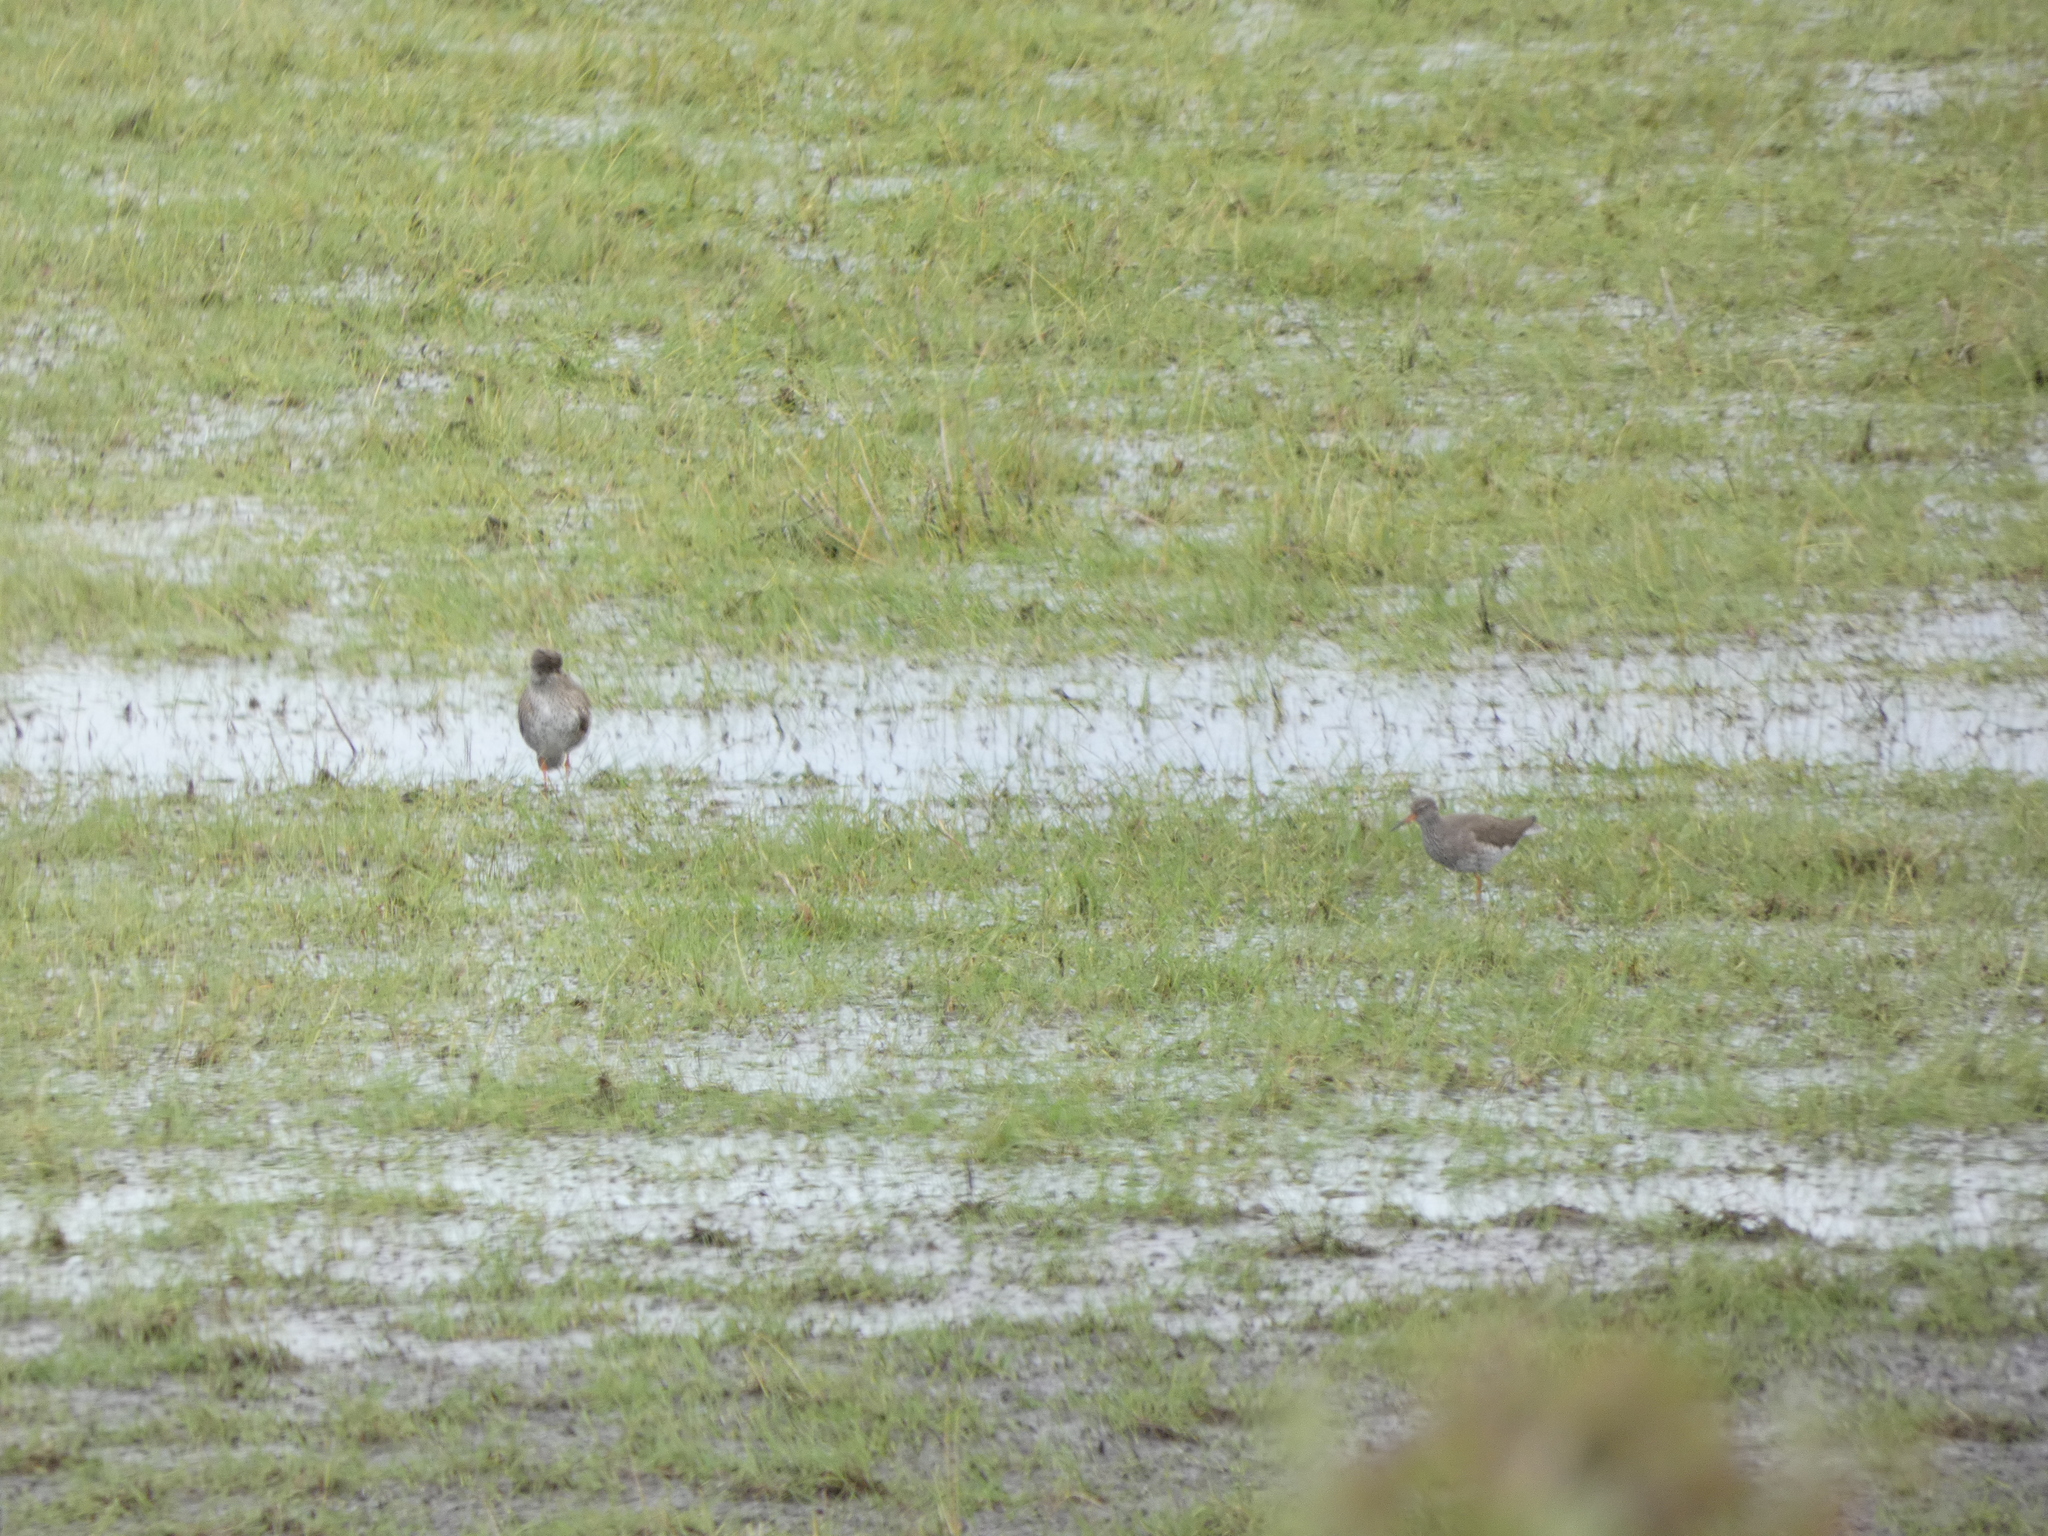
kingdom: Animalia
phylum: Chordata
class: Aves
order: Charadriiformes
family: Scolopacidae
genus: Tringa
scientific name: Tringa totanus
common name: Common redshank
